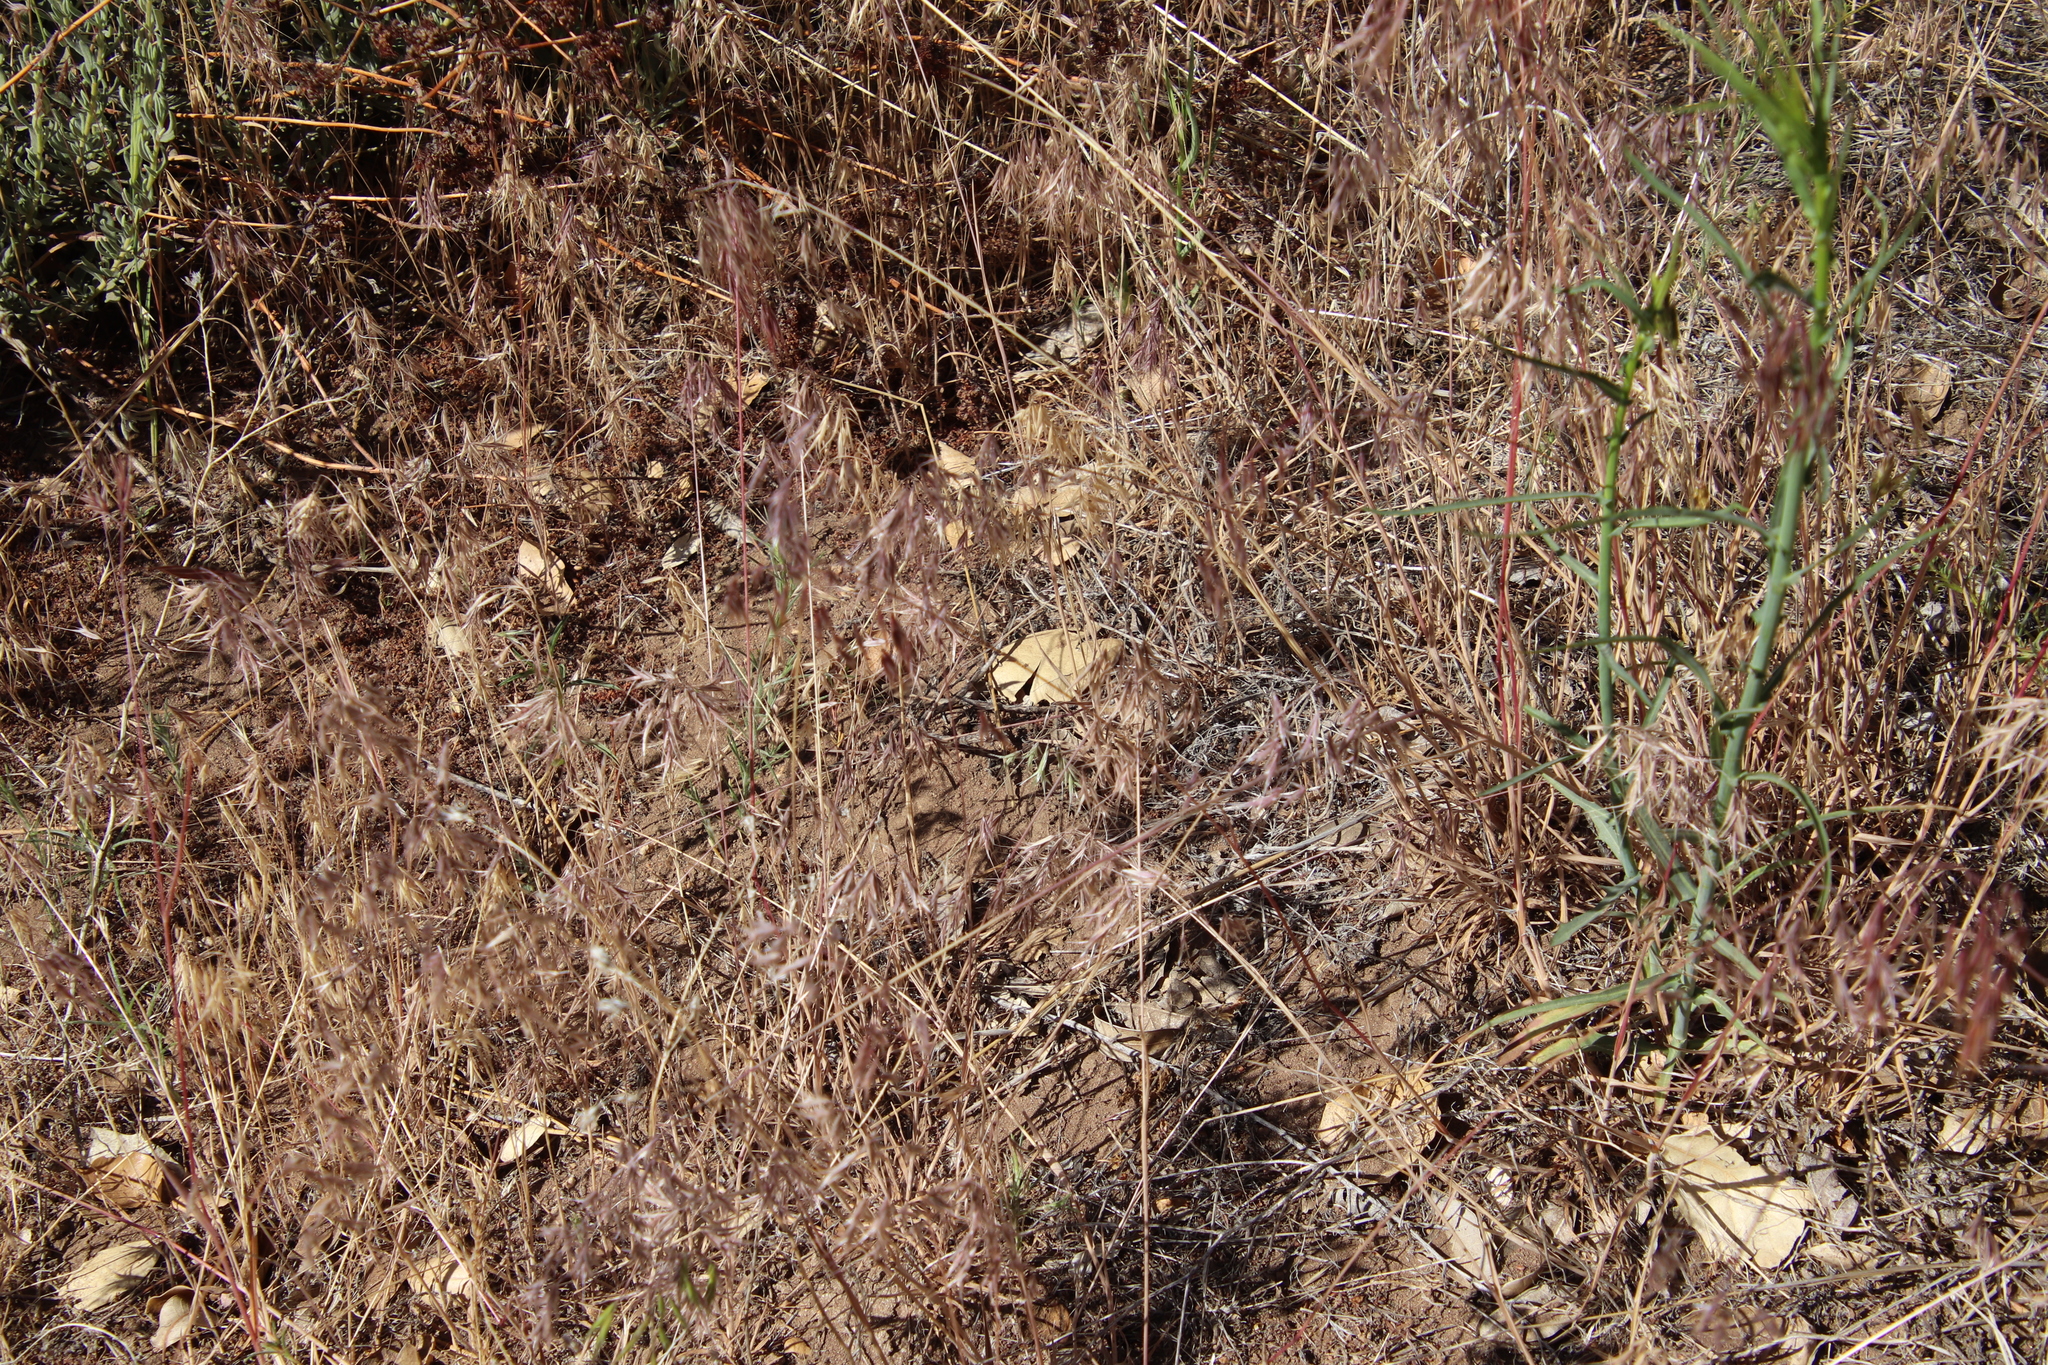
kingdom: Plantae
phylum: Tracheophyta
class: Liliopsida
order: Poales
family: Poaceae
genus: Bromus
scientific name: Bromus rubens
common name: Red brome
